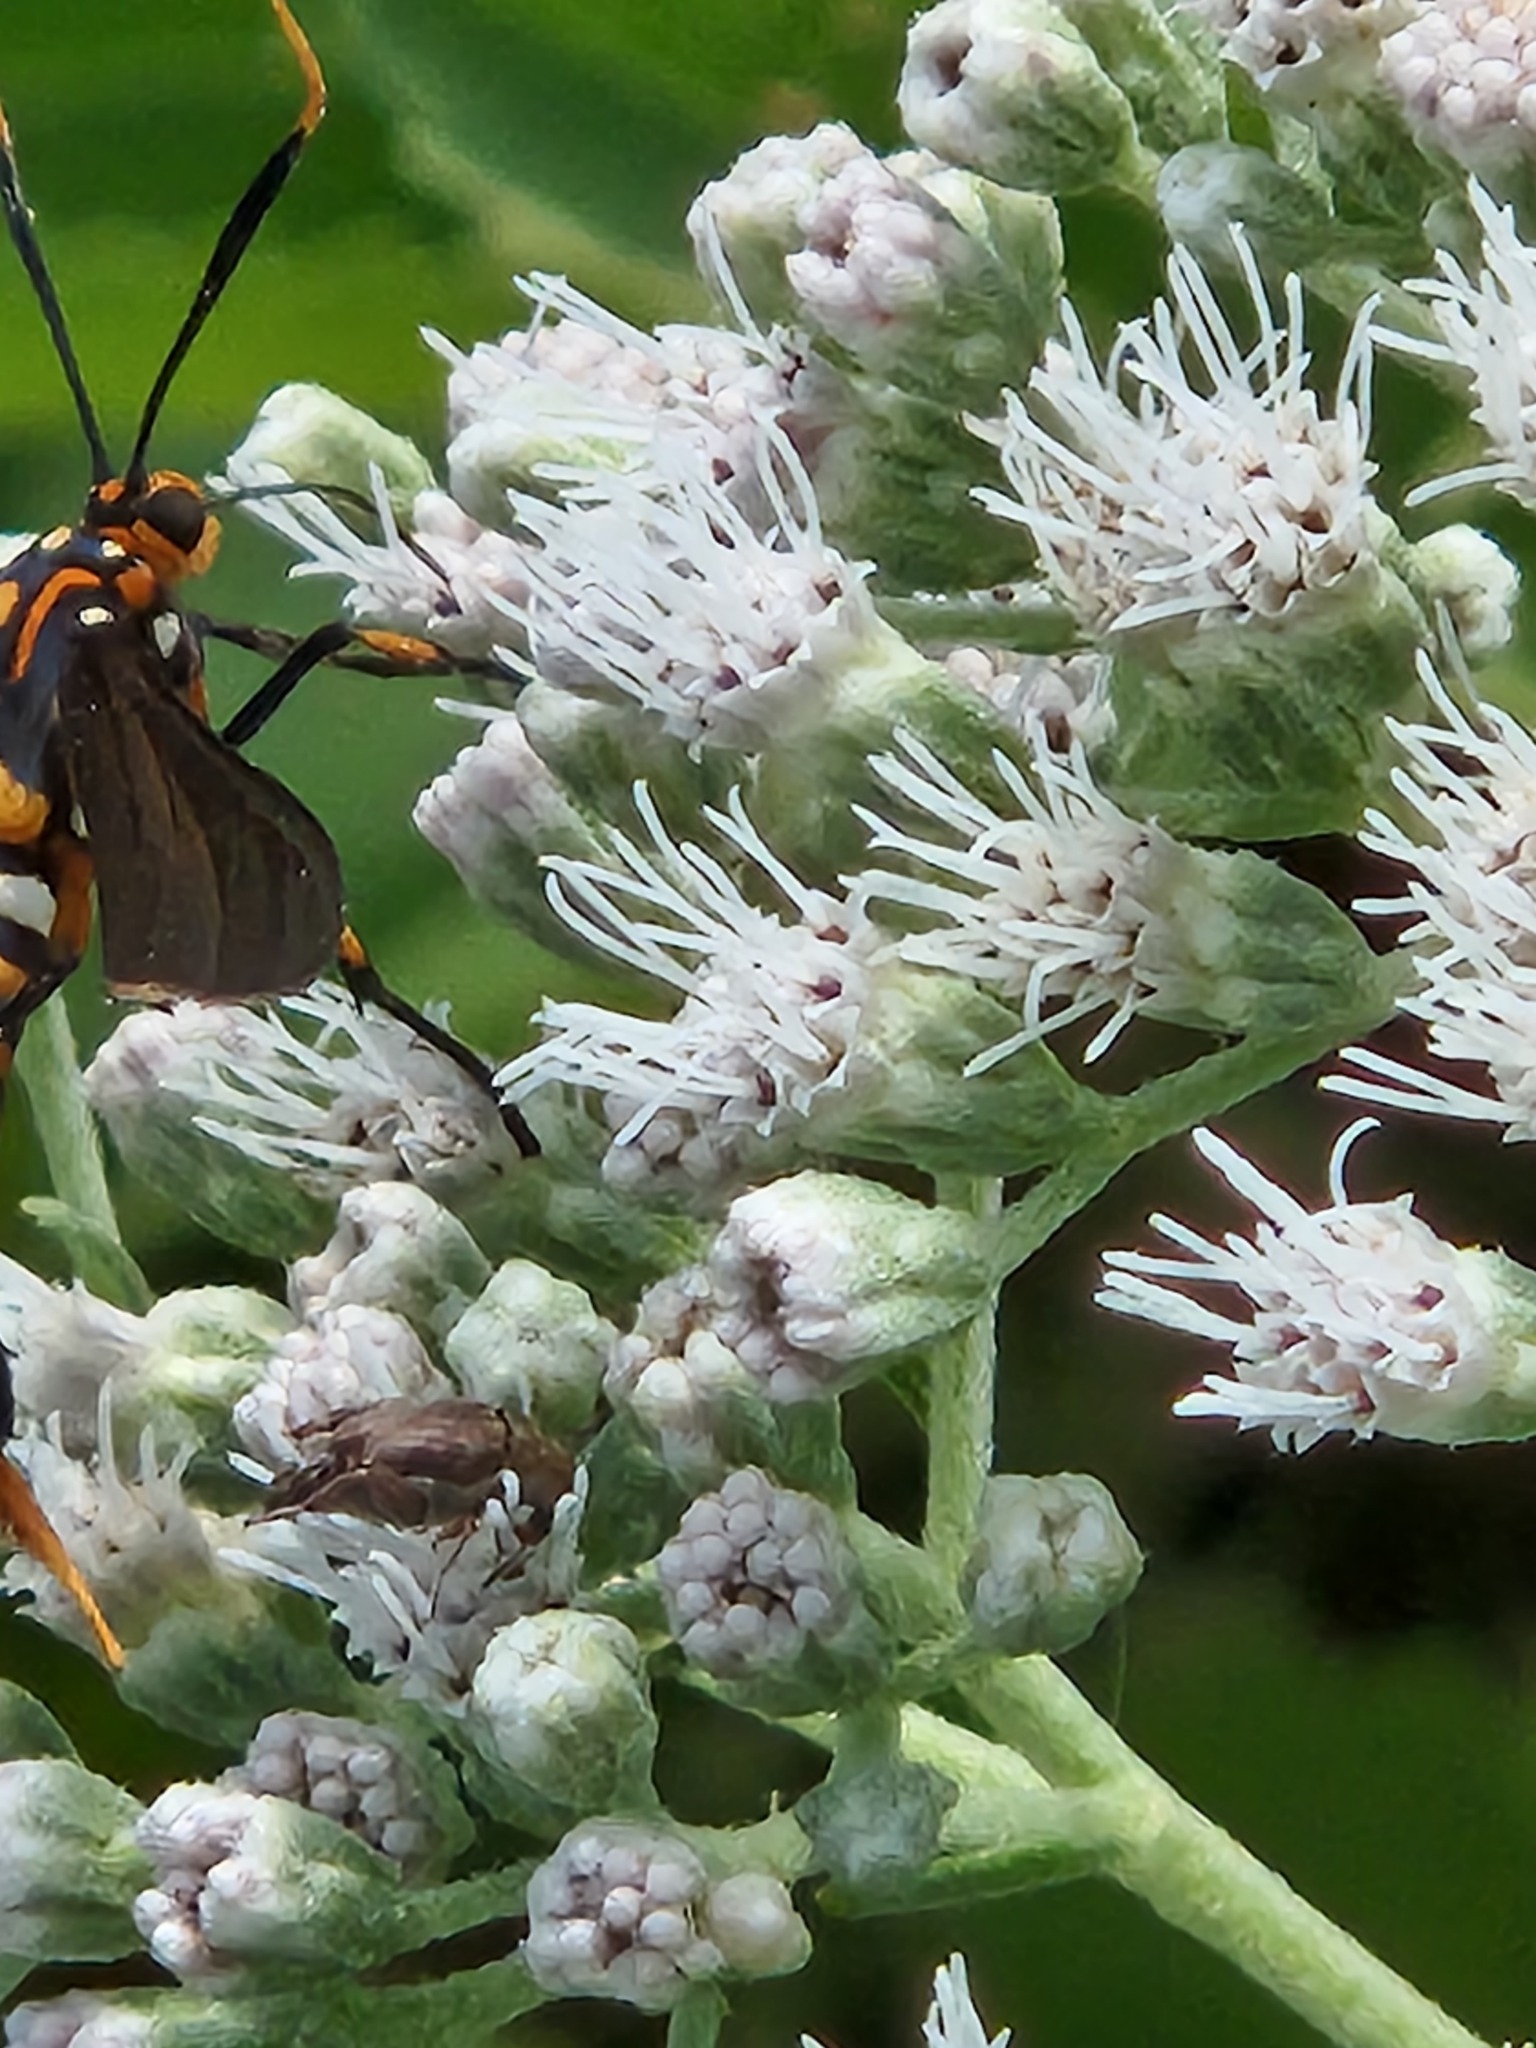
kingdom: Animalia
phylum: Arthropoda
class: Insecta
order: Lepidoptera
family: Erebidae
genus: Horama
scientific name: Horama panthalon
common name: Texas wasp moth
